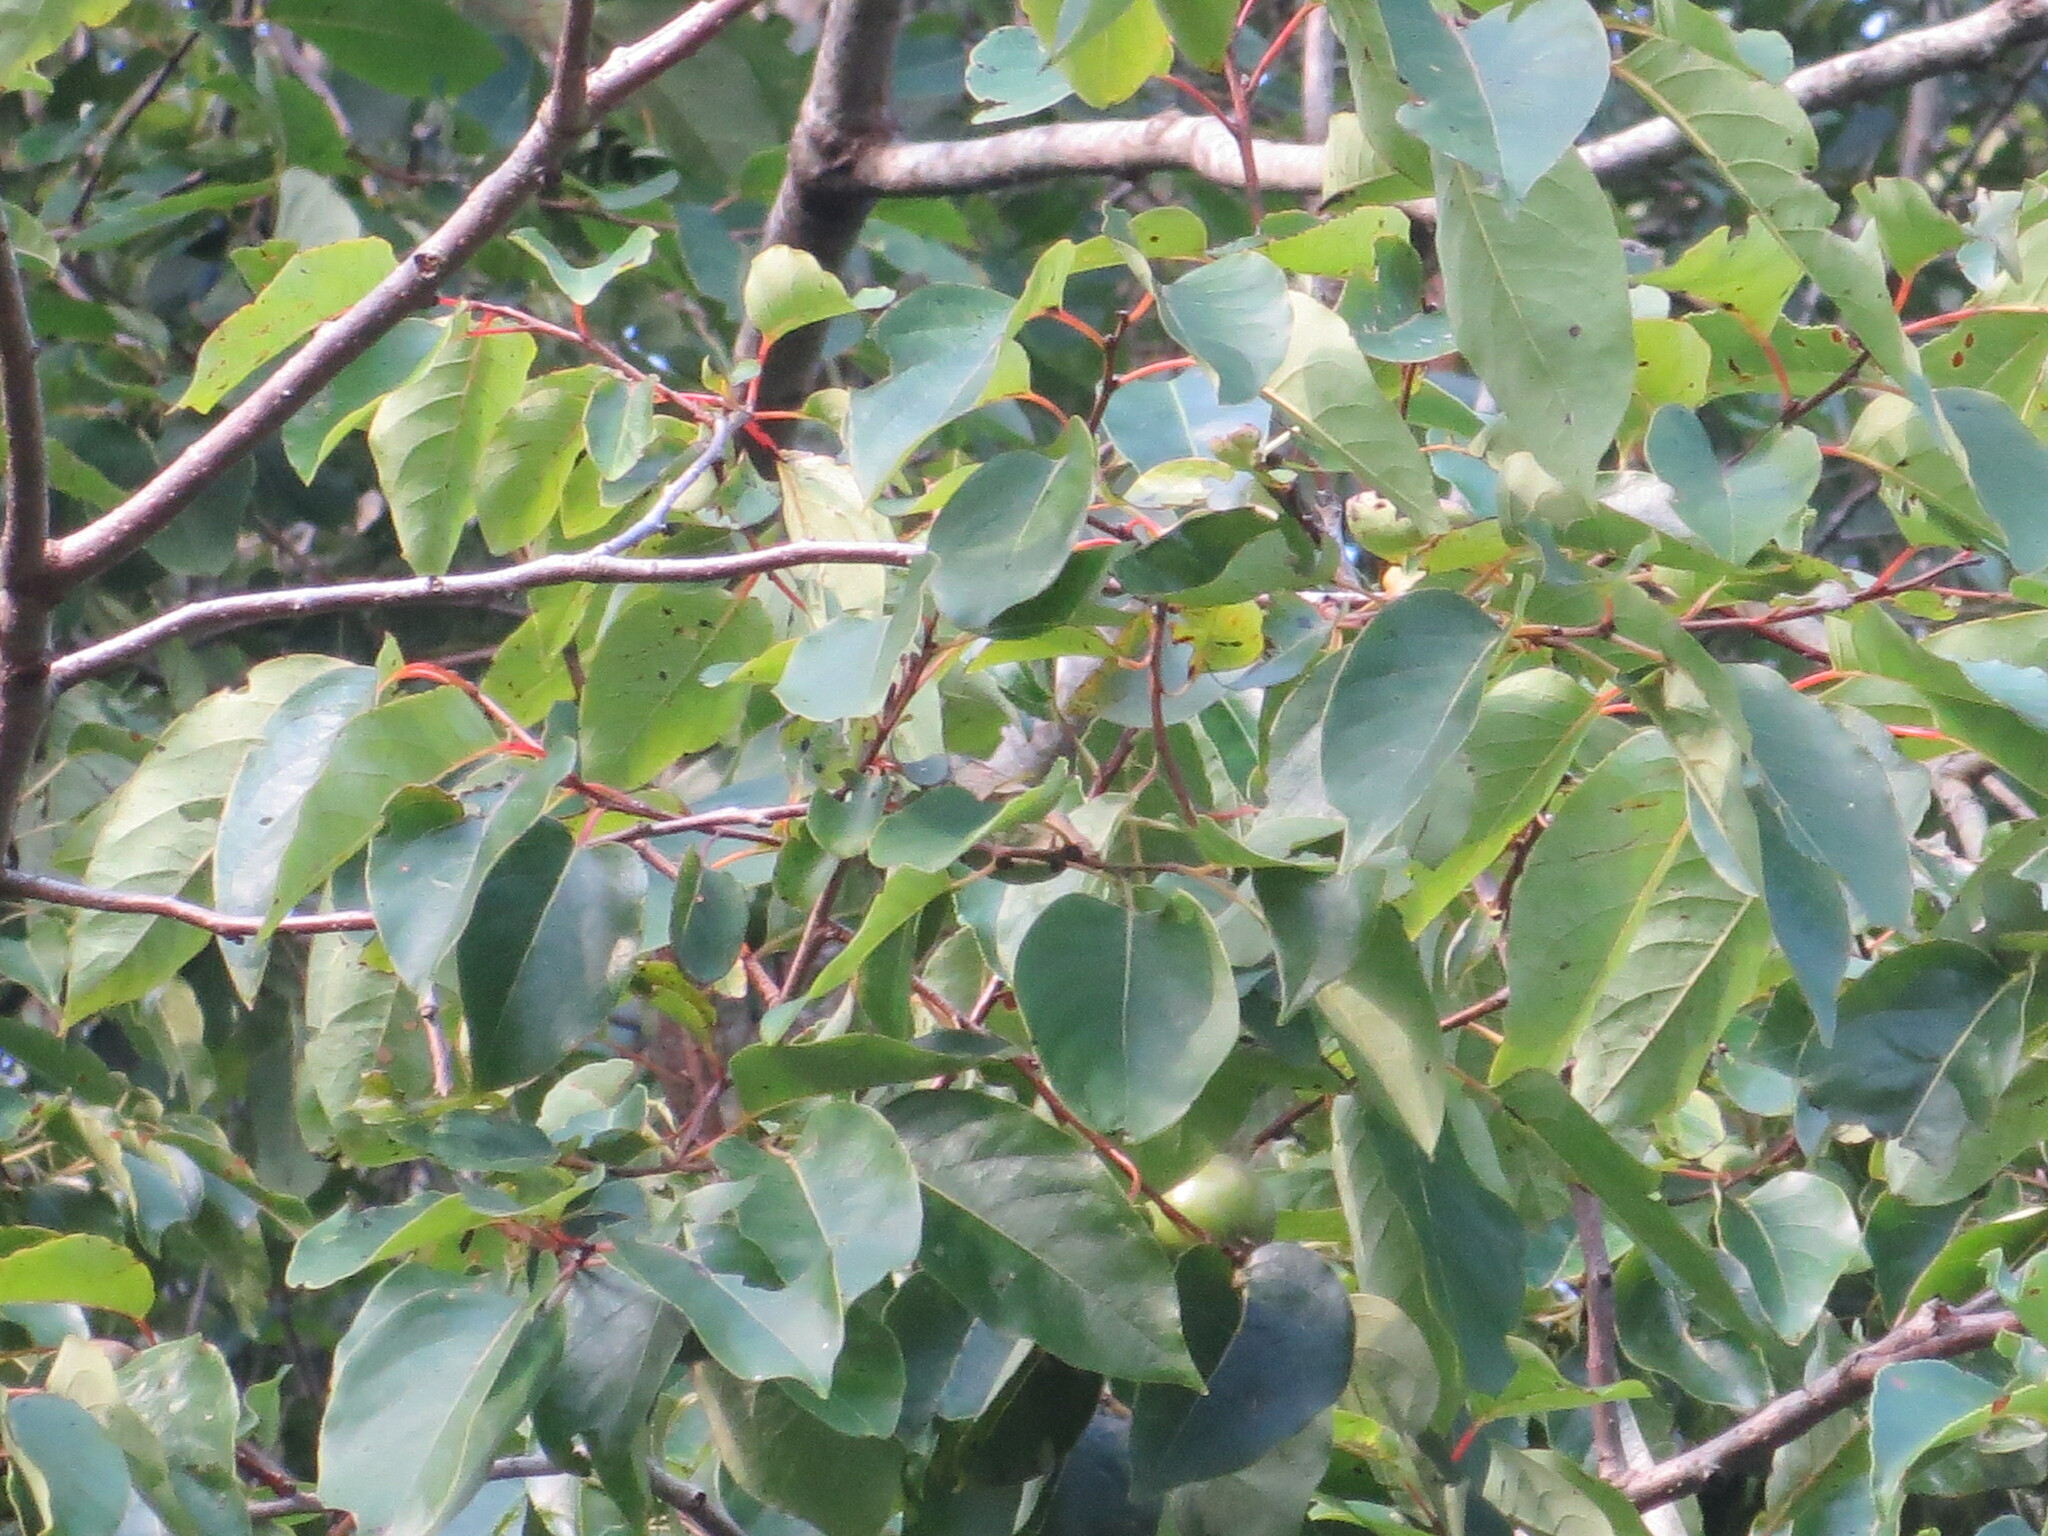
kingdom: Plantae
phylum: Tracheophyta
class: Magnoliopsida
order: Ericales
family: Ebenaceae
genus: Diospyros
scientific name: Diospyros virginiana
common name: Persimmon
